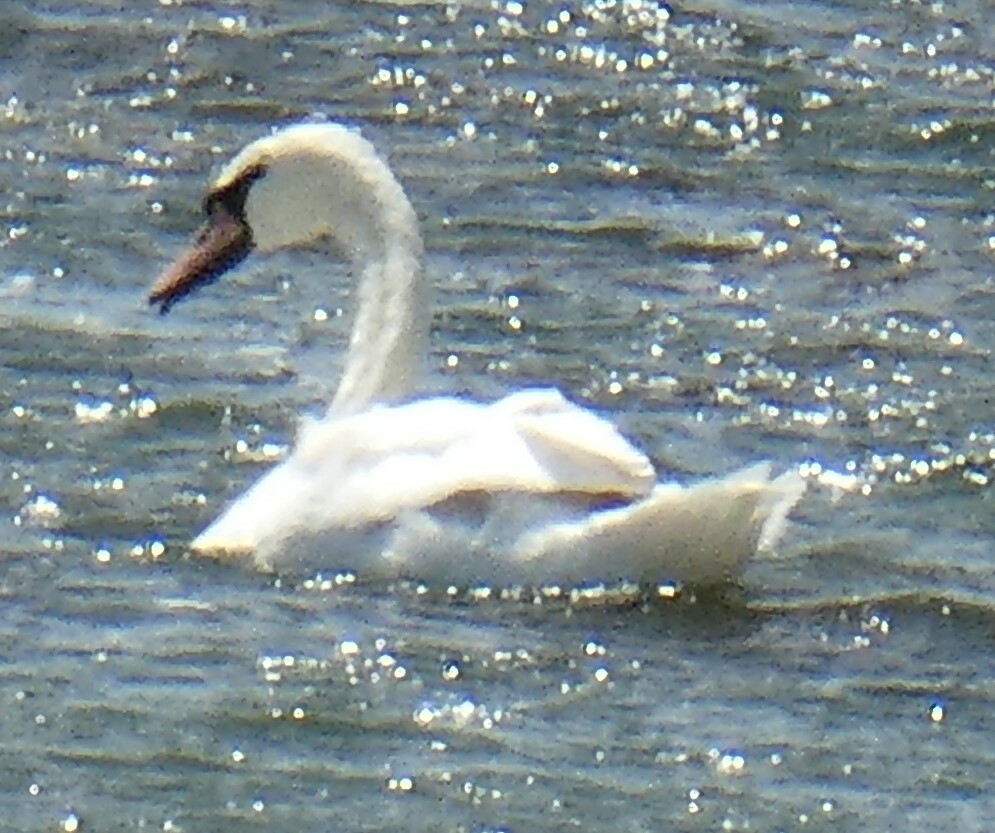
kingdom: Animalia
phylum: Chordata
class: Aves
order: Anseriformes
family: Anatidae
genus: Cygnus
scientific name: Cygnus olor
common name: Mute swan
